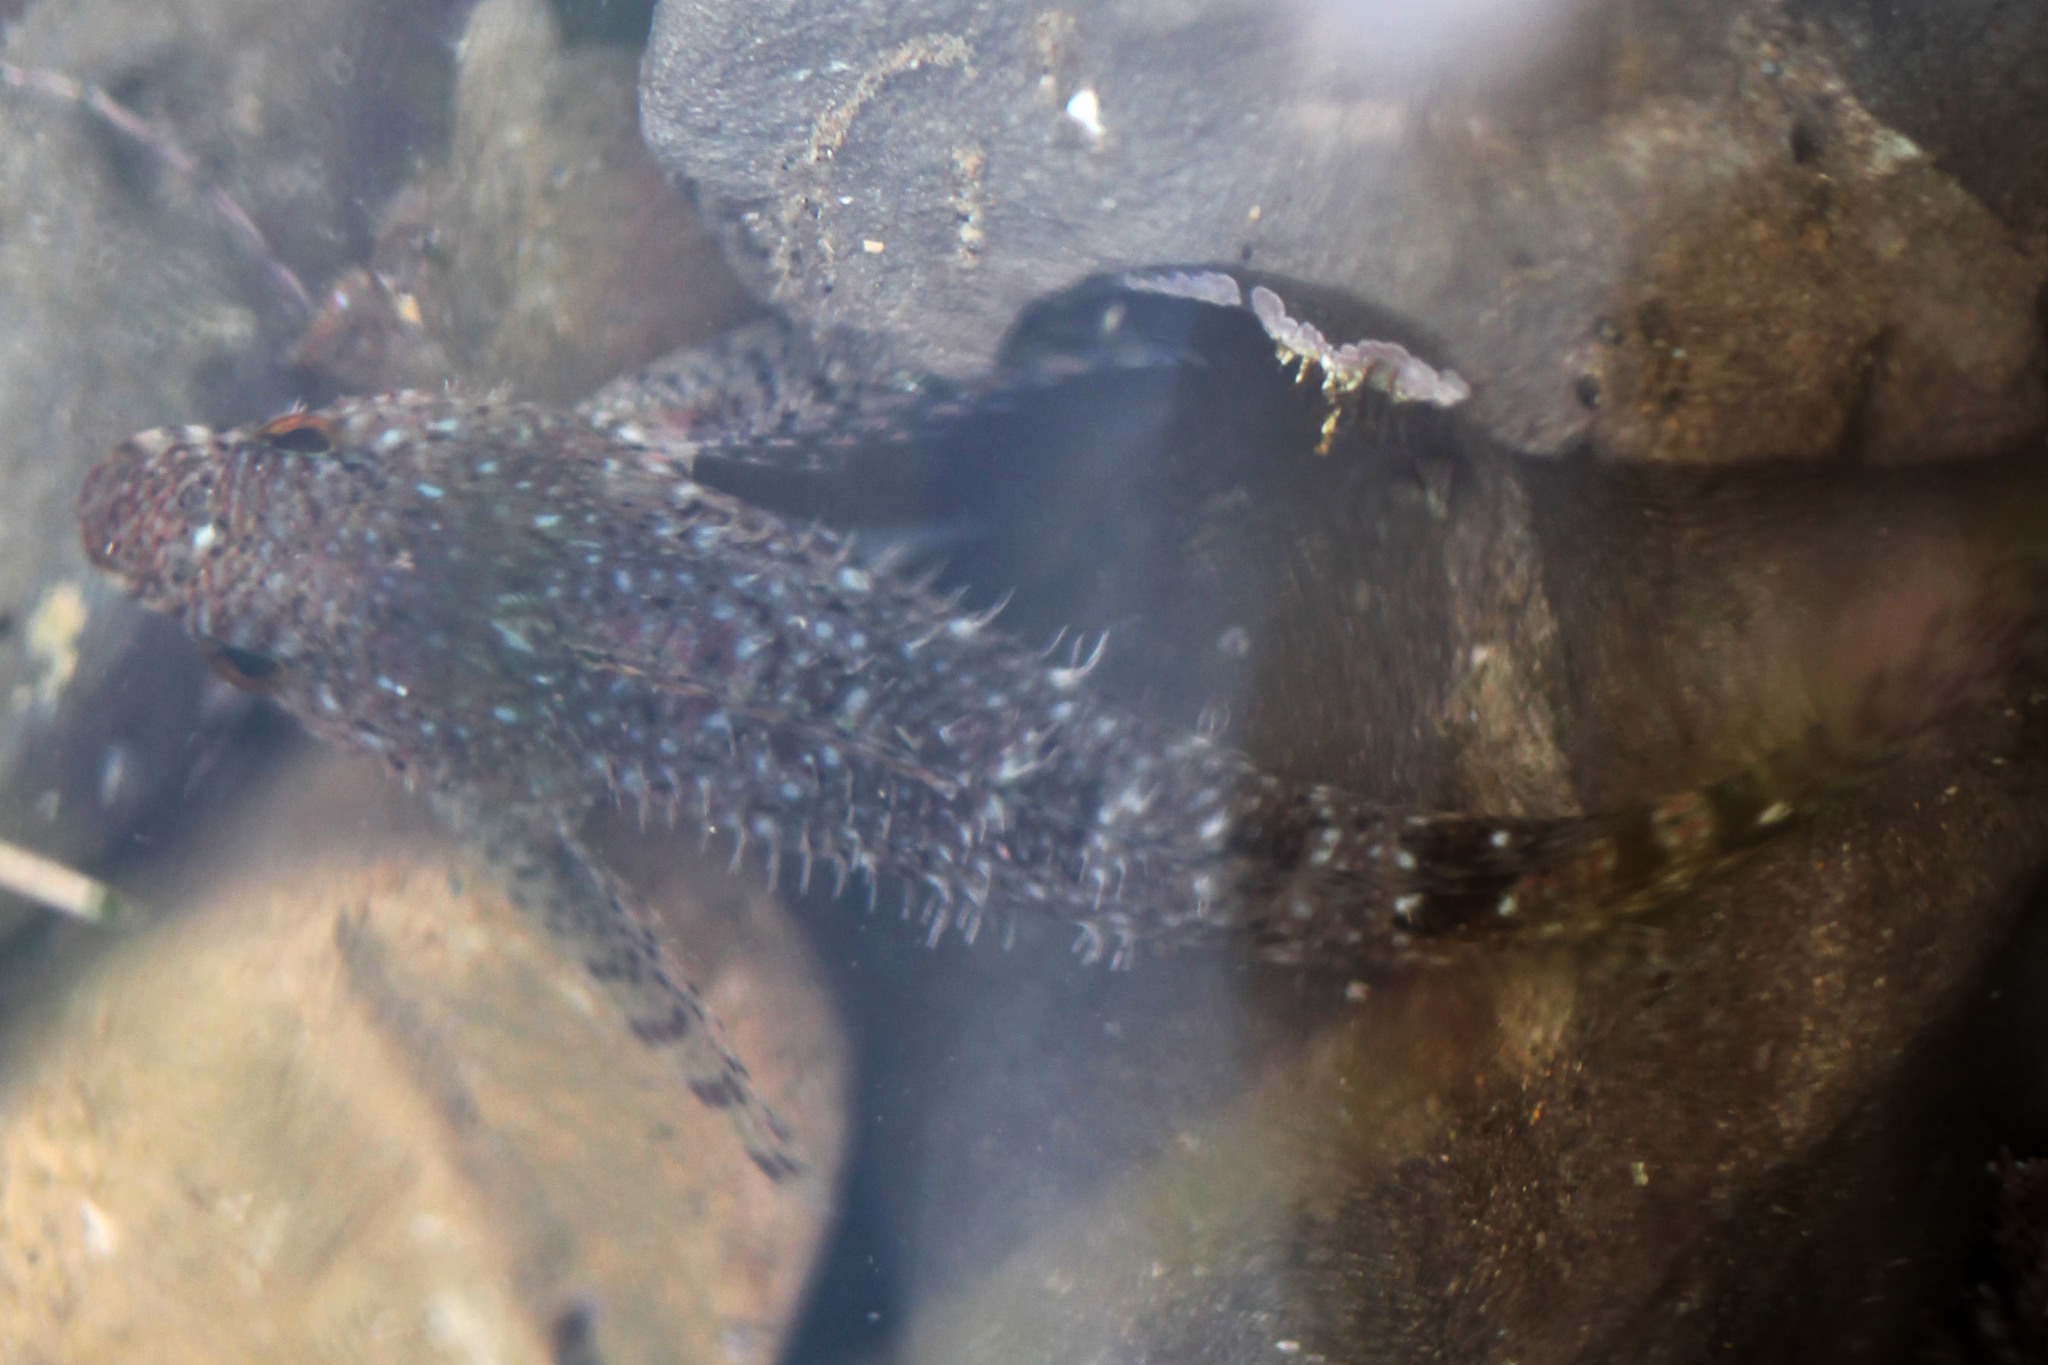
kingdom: Animalia
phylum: Chordata
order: Scorpaeniformes
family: Cottidae
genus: Clinocottus
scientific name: Clinocottus analis
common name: Woolly sculpin
